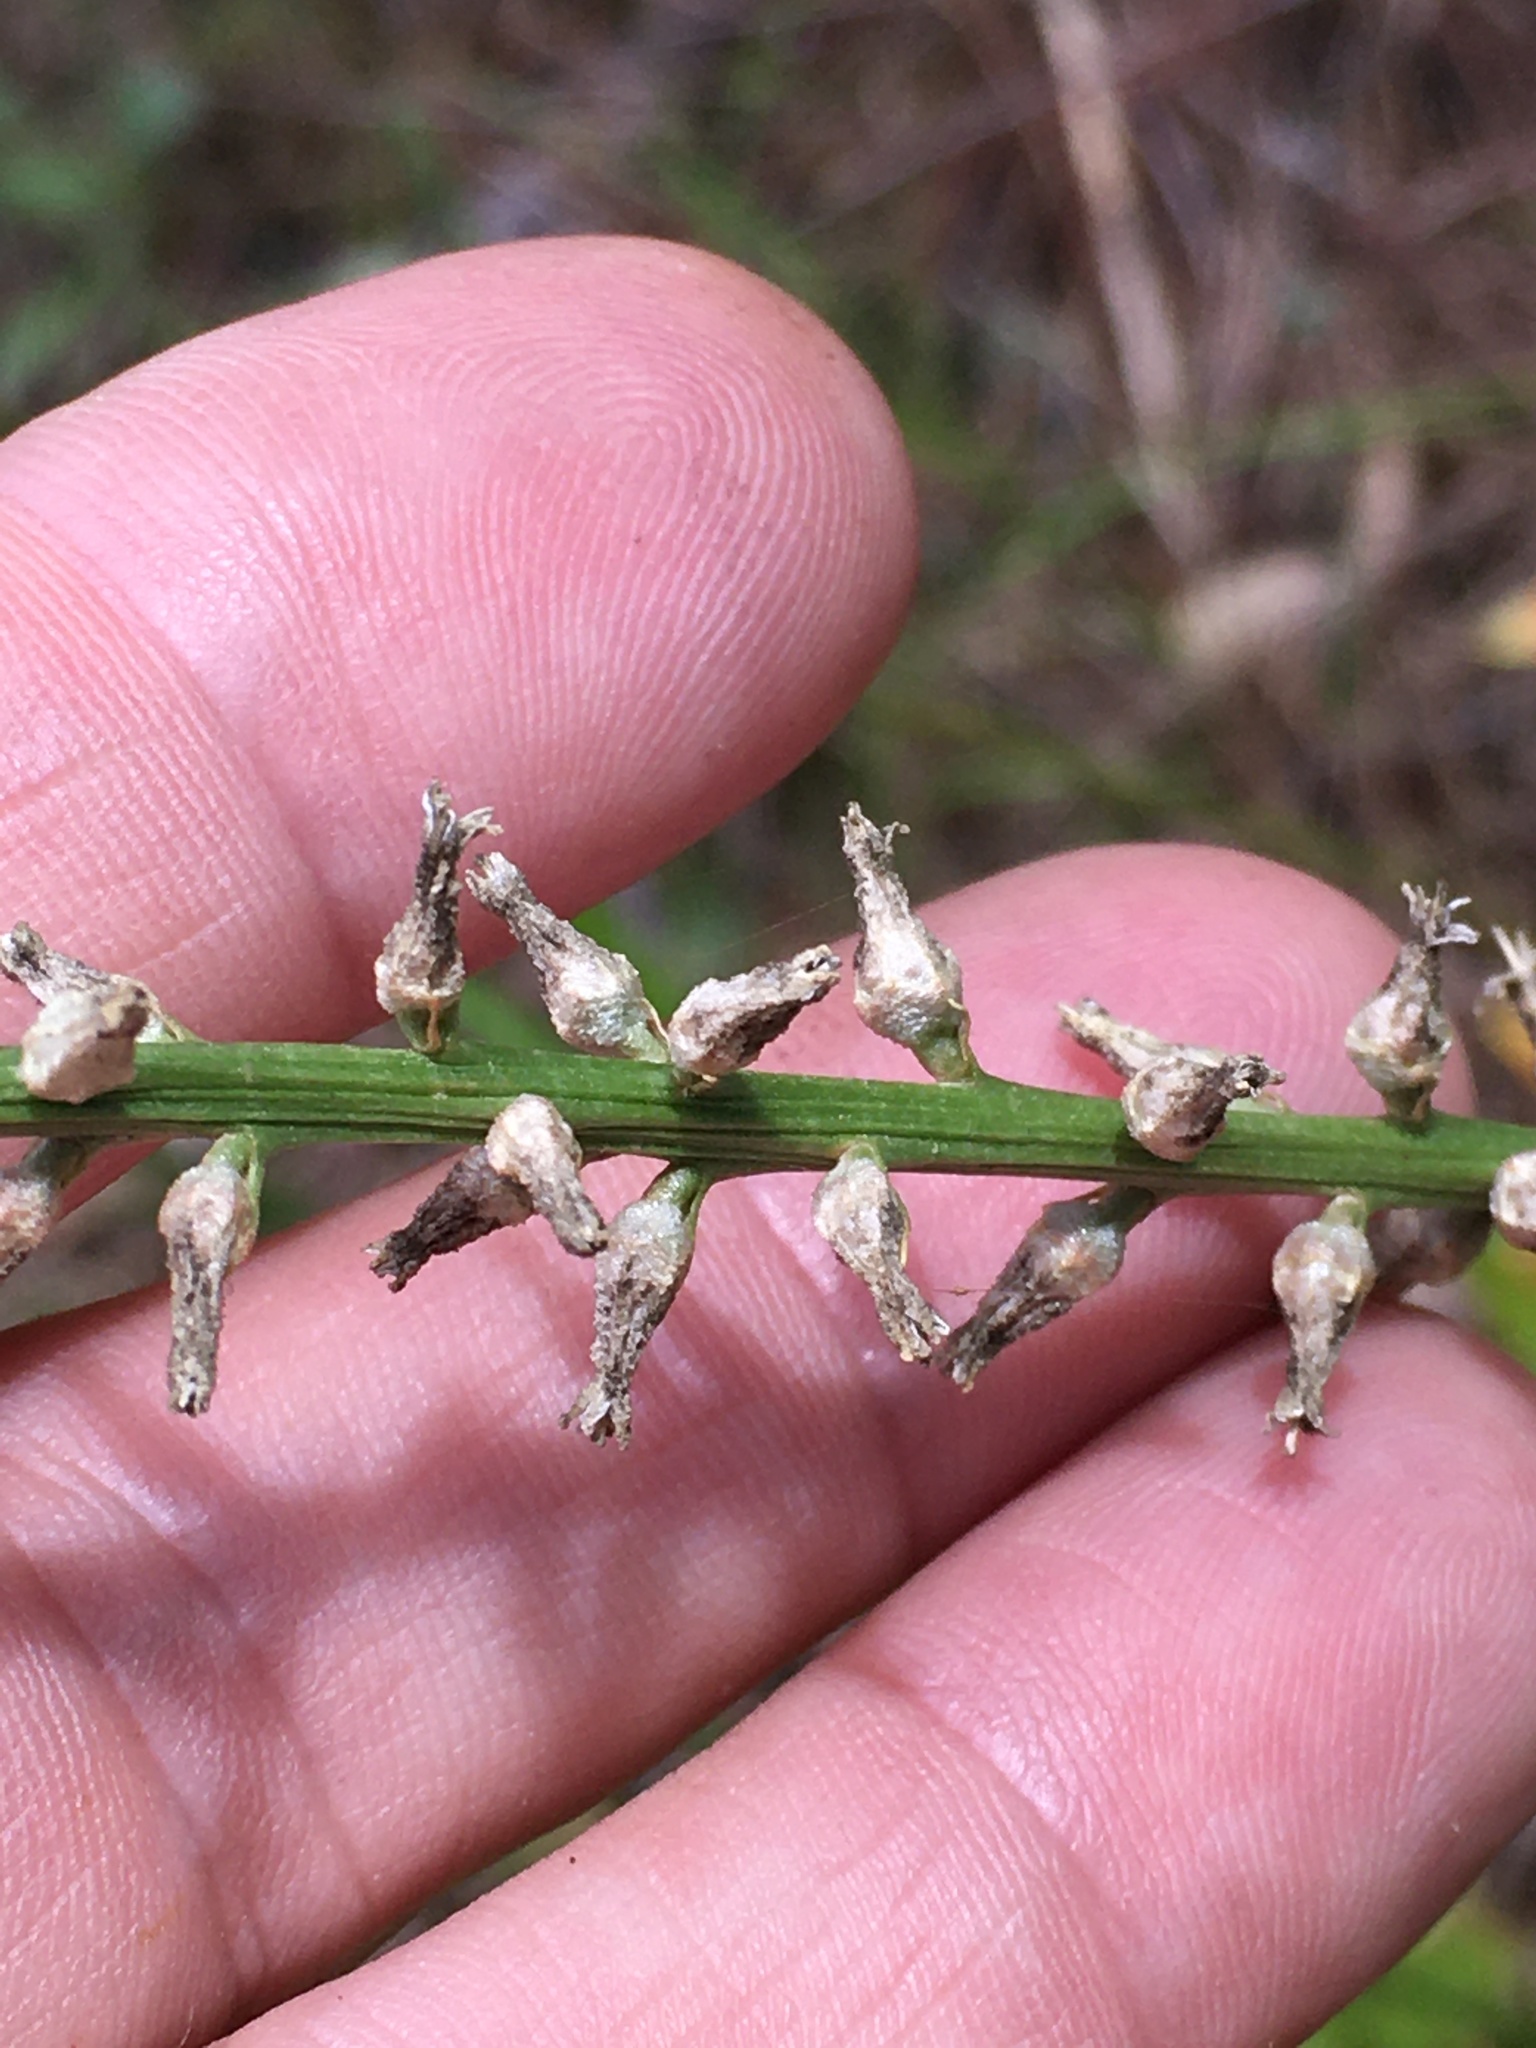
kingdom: Plantae
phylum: Tracheophyta
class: Liliopsida
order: Dioscoreales
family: Nartheciaceae
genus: Aletris
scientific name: Aletris farinosa
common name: Colicroot
